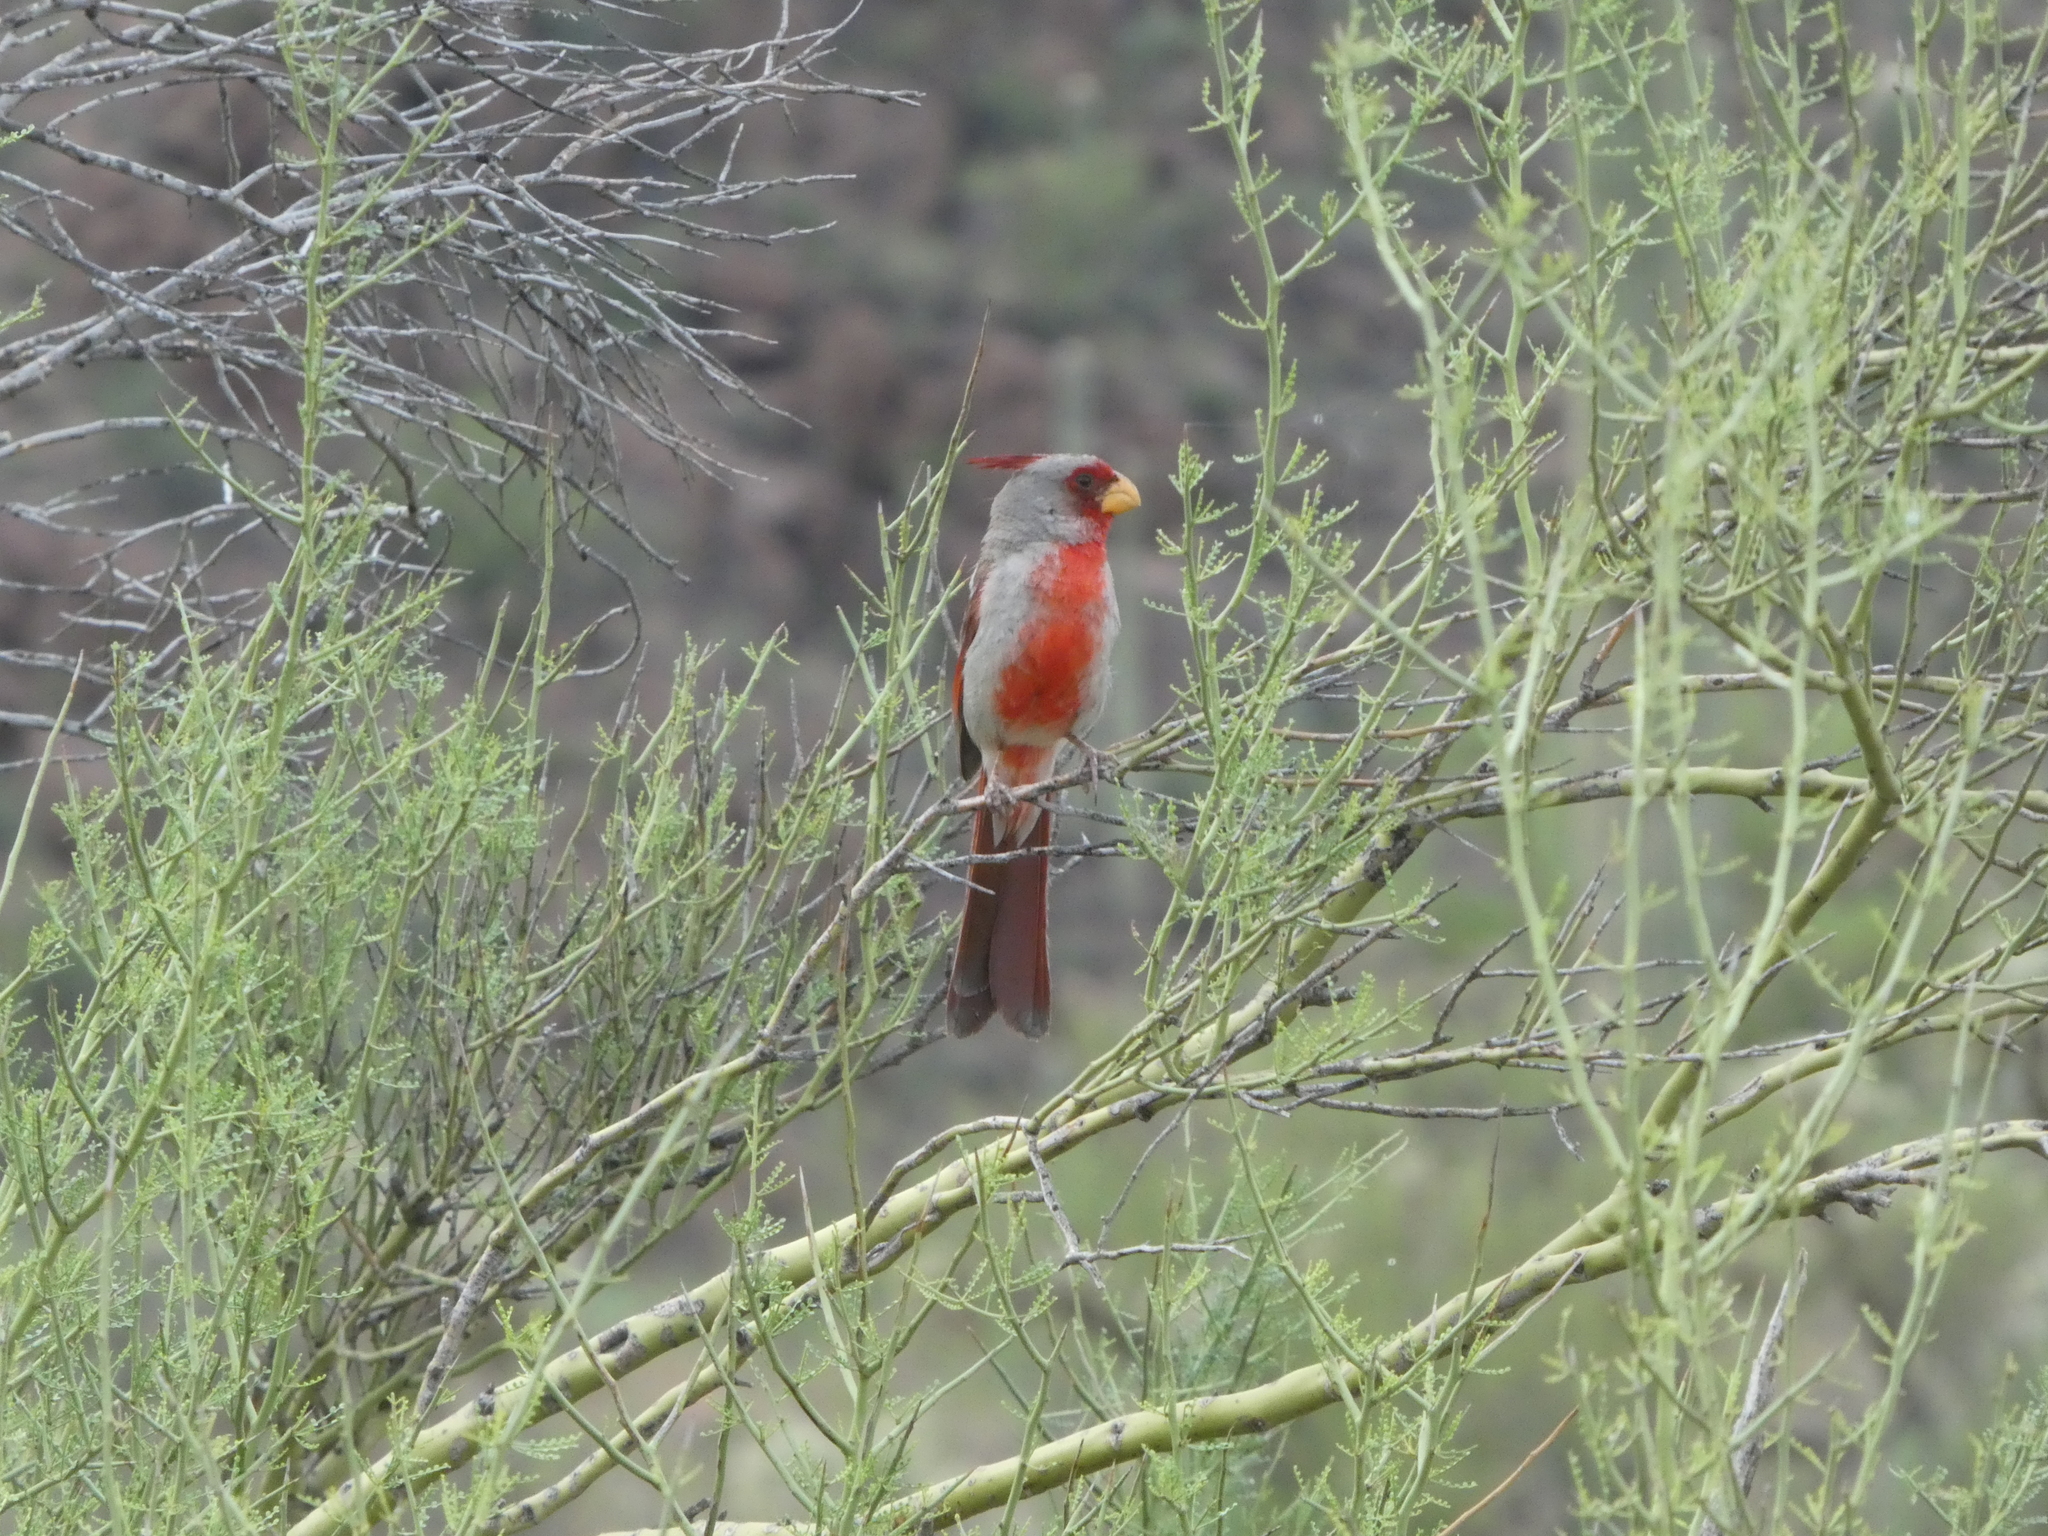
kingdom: Animalia
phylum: Chordata
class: Aves
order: Passeriformes
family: Cardinalidae
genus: Cardinalis
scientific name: Cardinalis sinuatus
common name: Pyrrhuloxia
